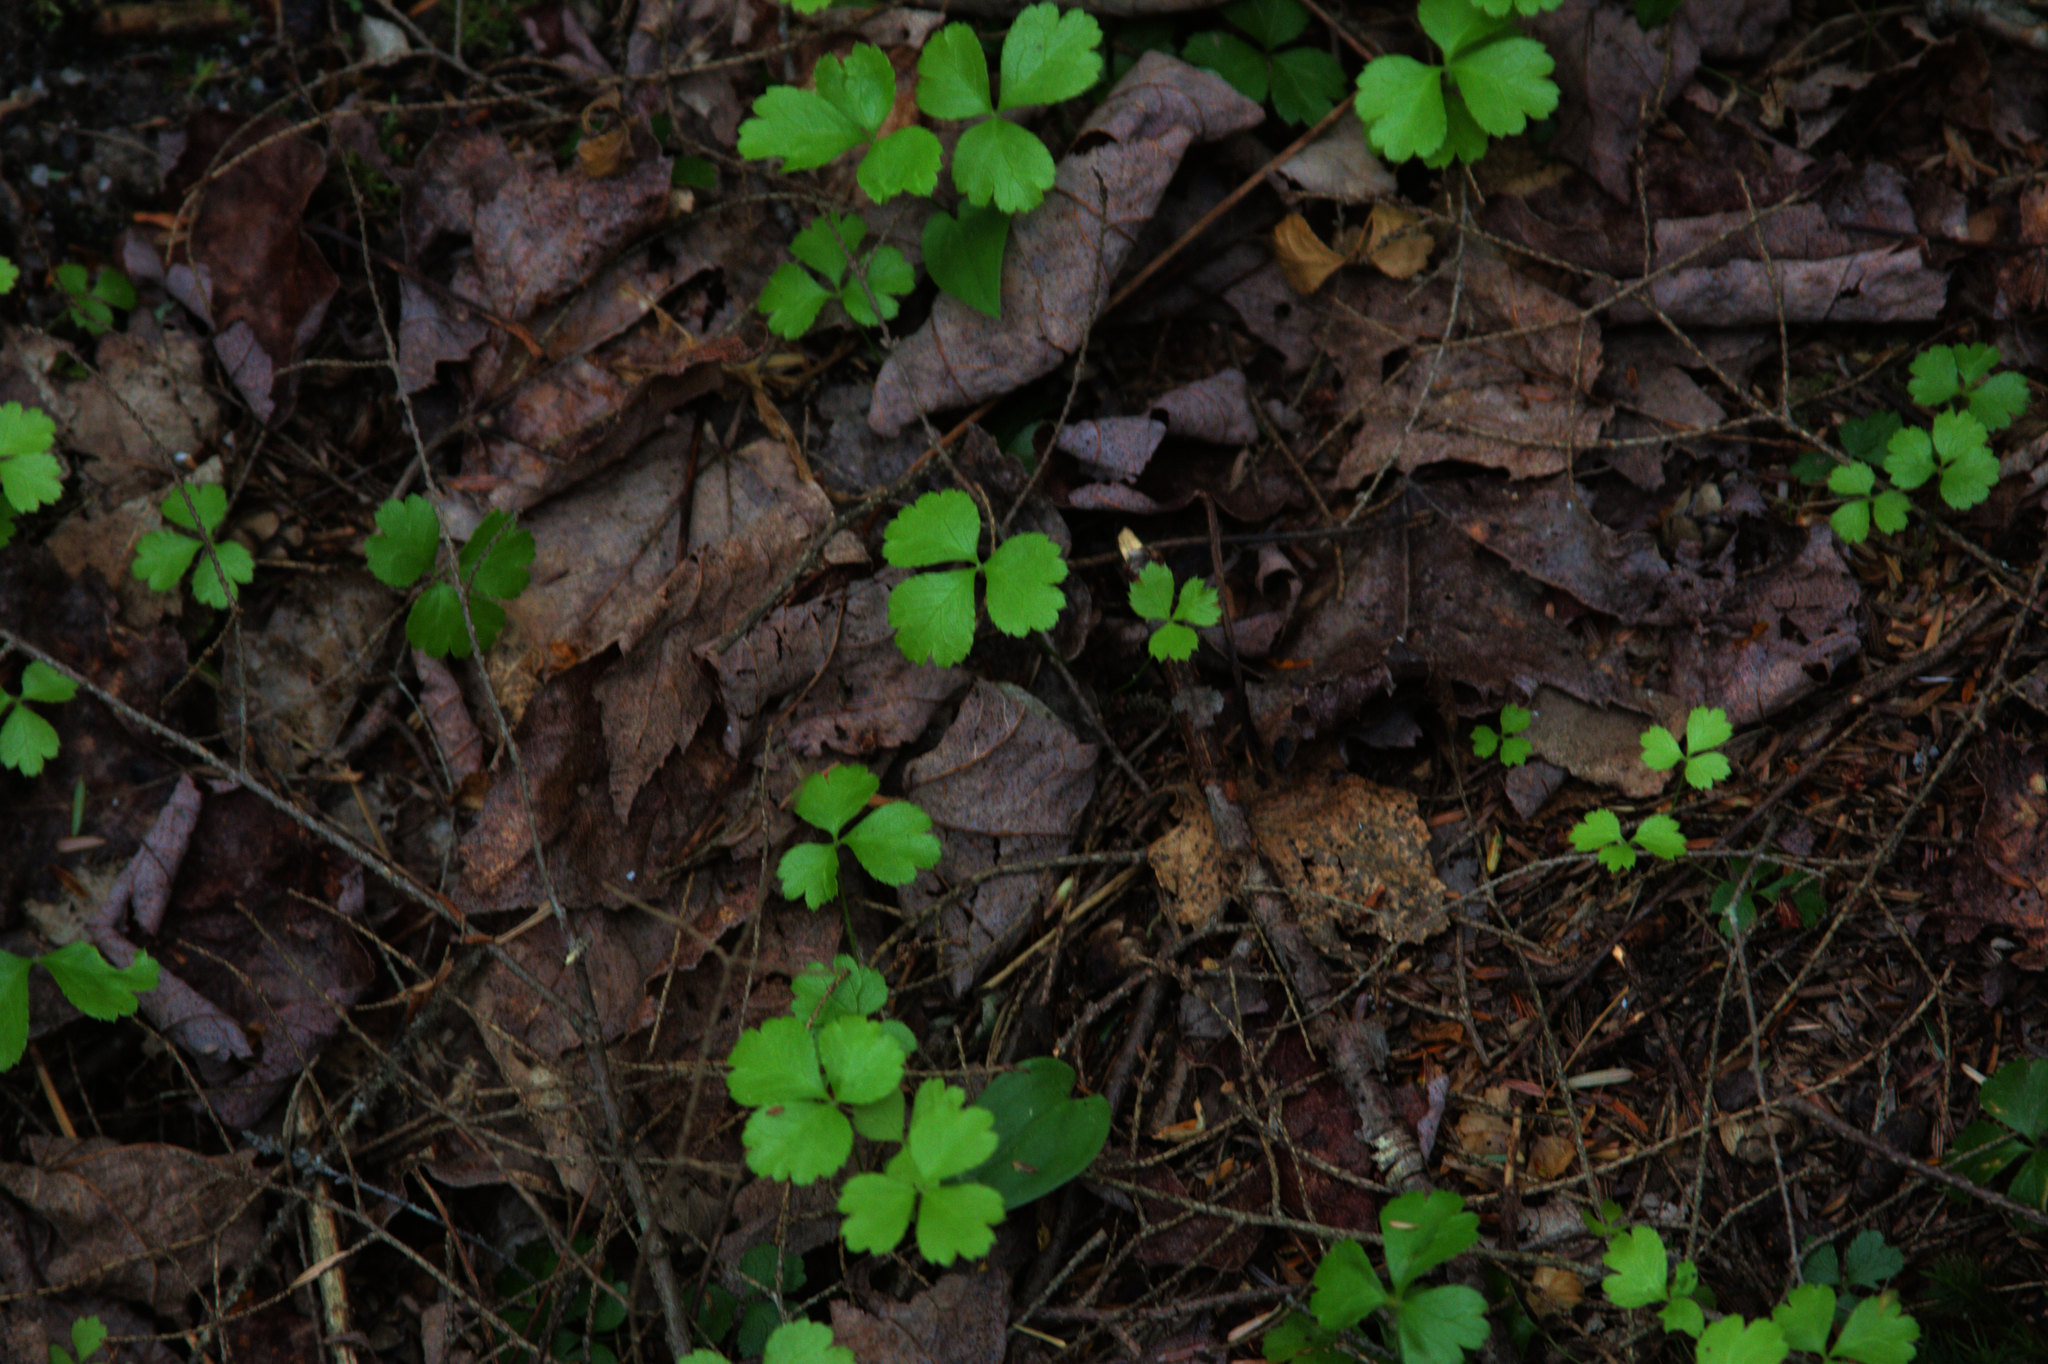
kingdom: Plantae
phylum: Tracheophyta
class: Magnoliopsida
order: Ranunculales
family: Ranunculaceae
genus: Coptis
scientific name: Coptis trifolia
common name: Canker-root
